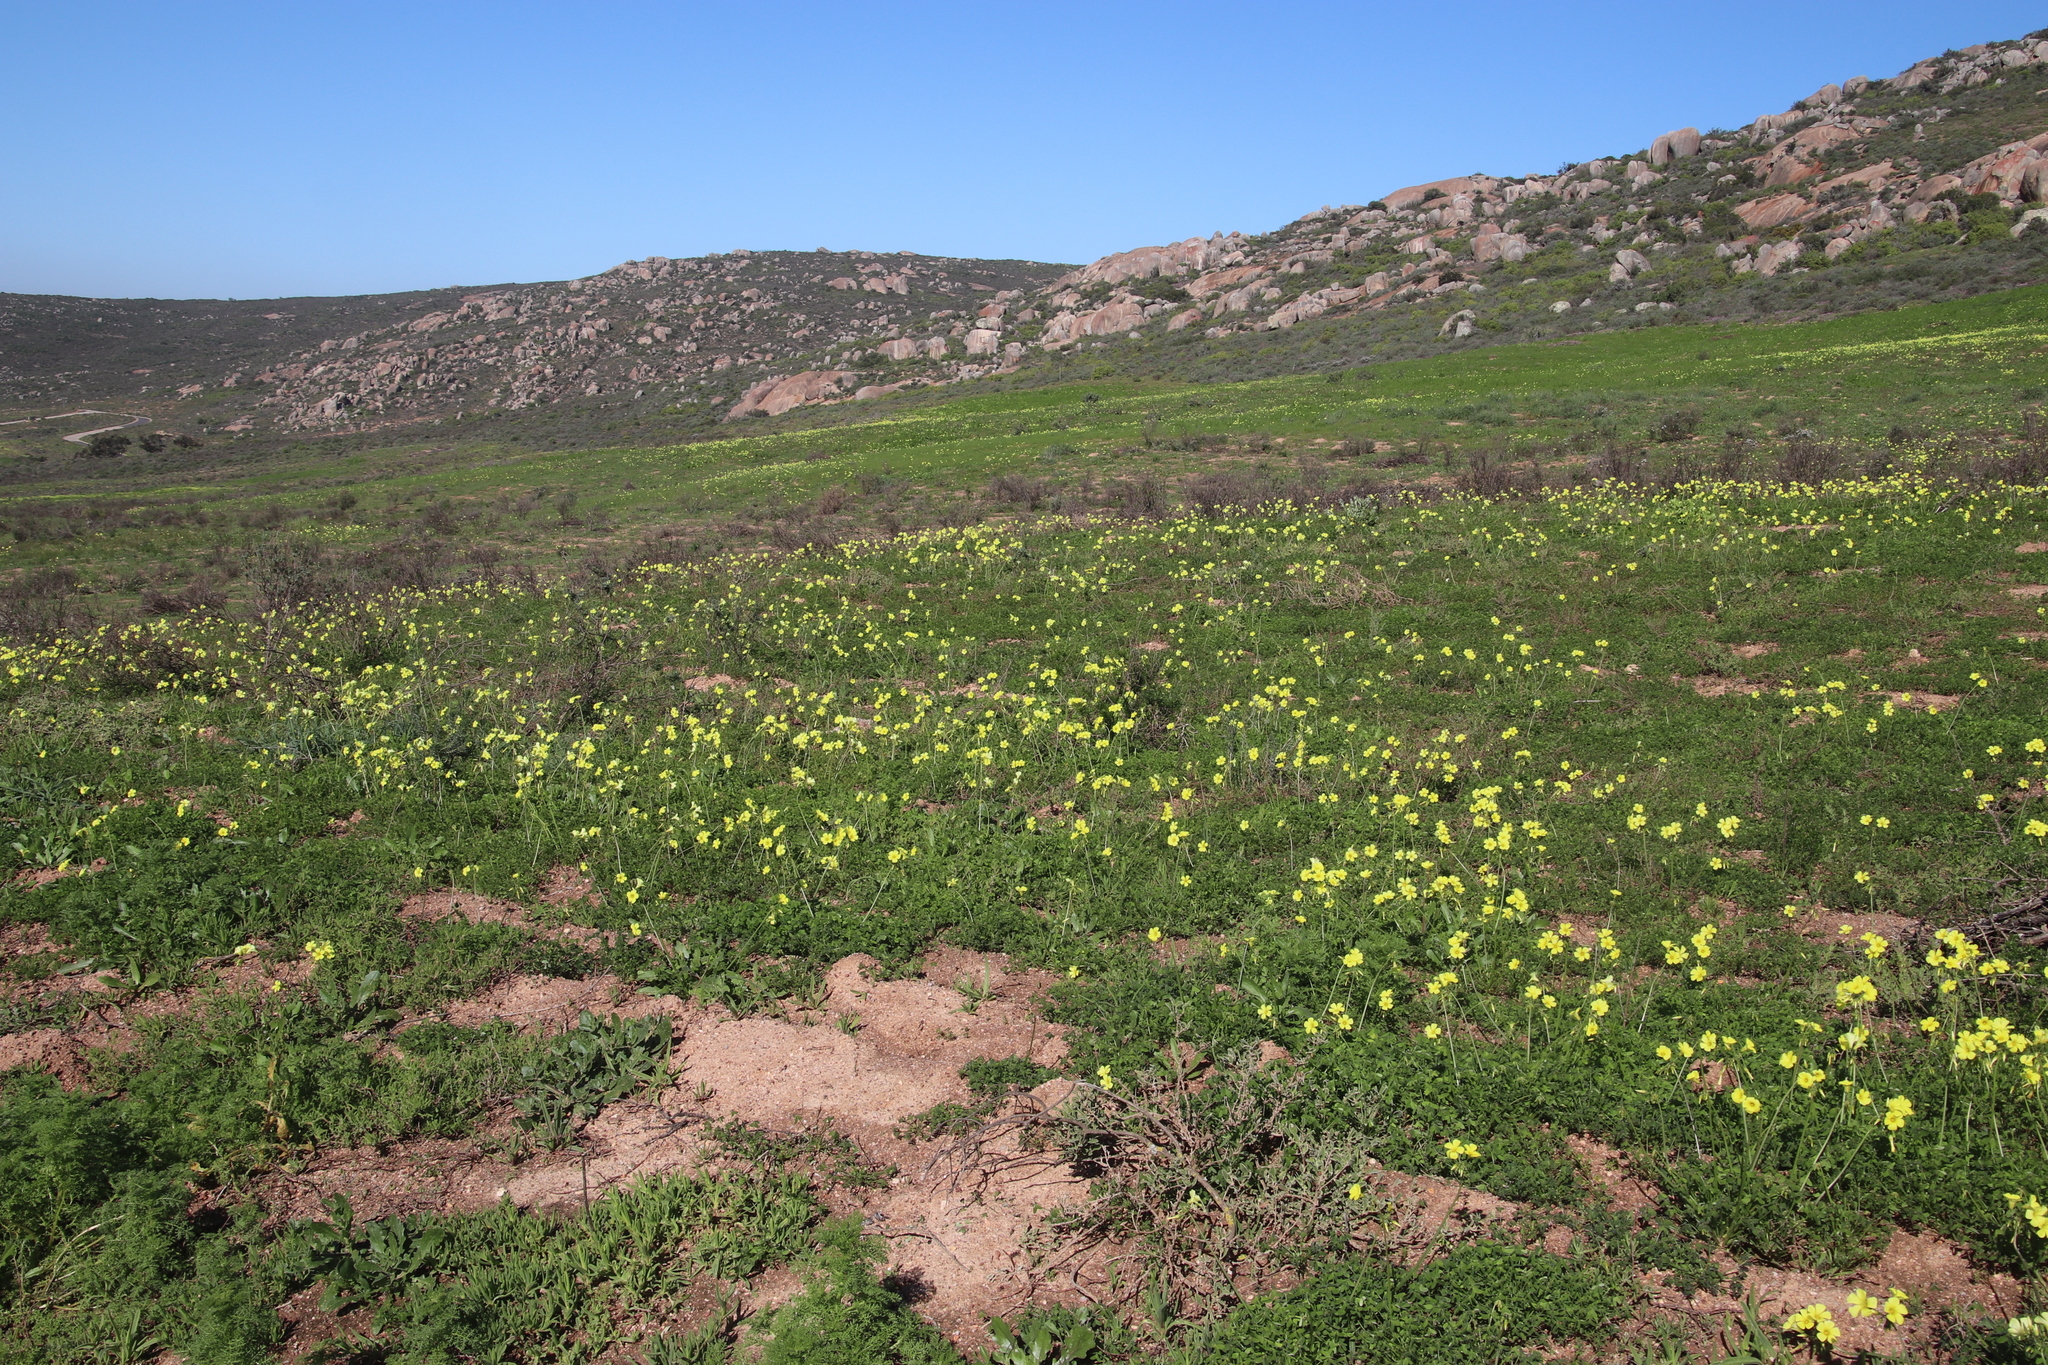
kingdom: Plantae
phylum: Tracheophyta
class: Magnoliopsida
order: Oxalidales
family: Oxalidaceae
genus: Oxalis
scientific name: Oxalis pes-caprae
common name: Bermuda-buttercup
